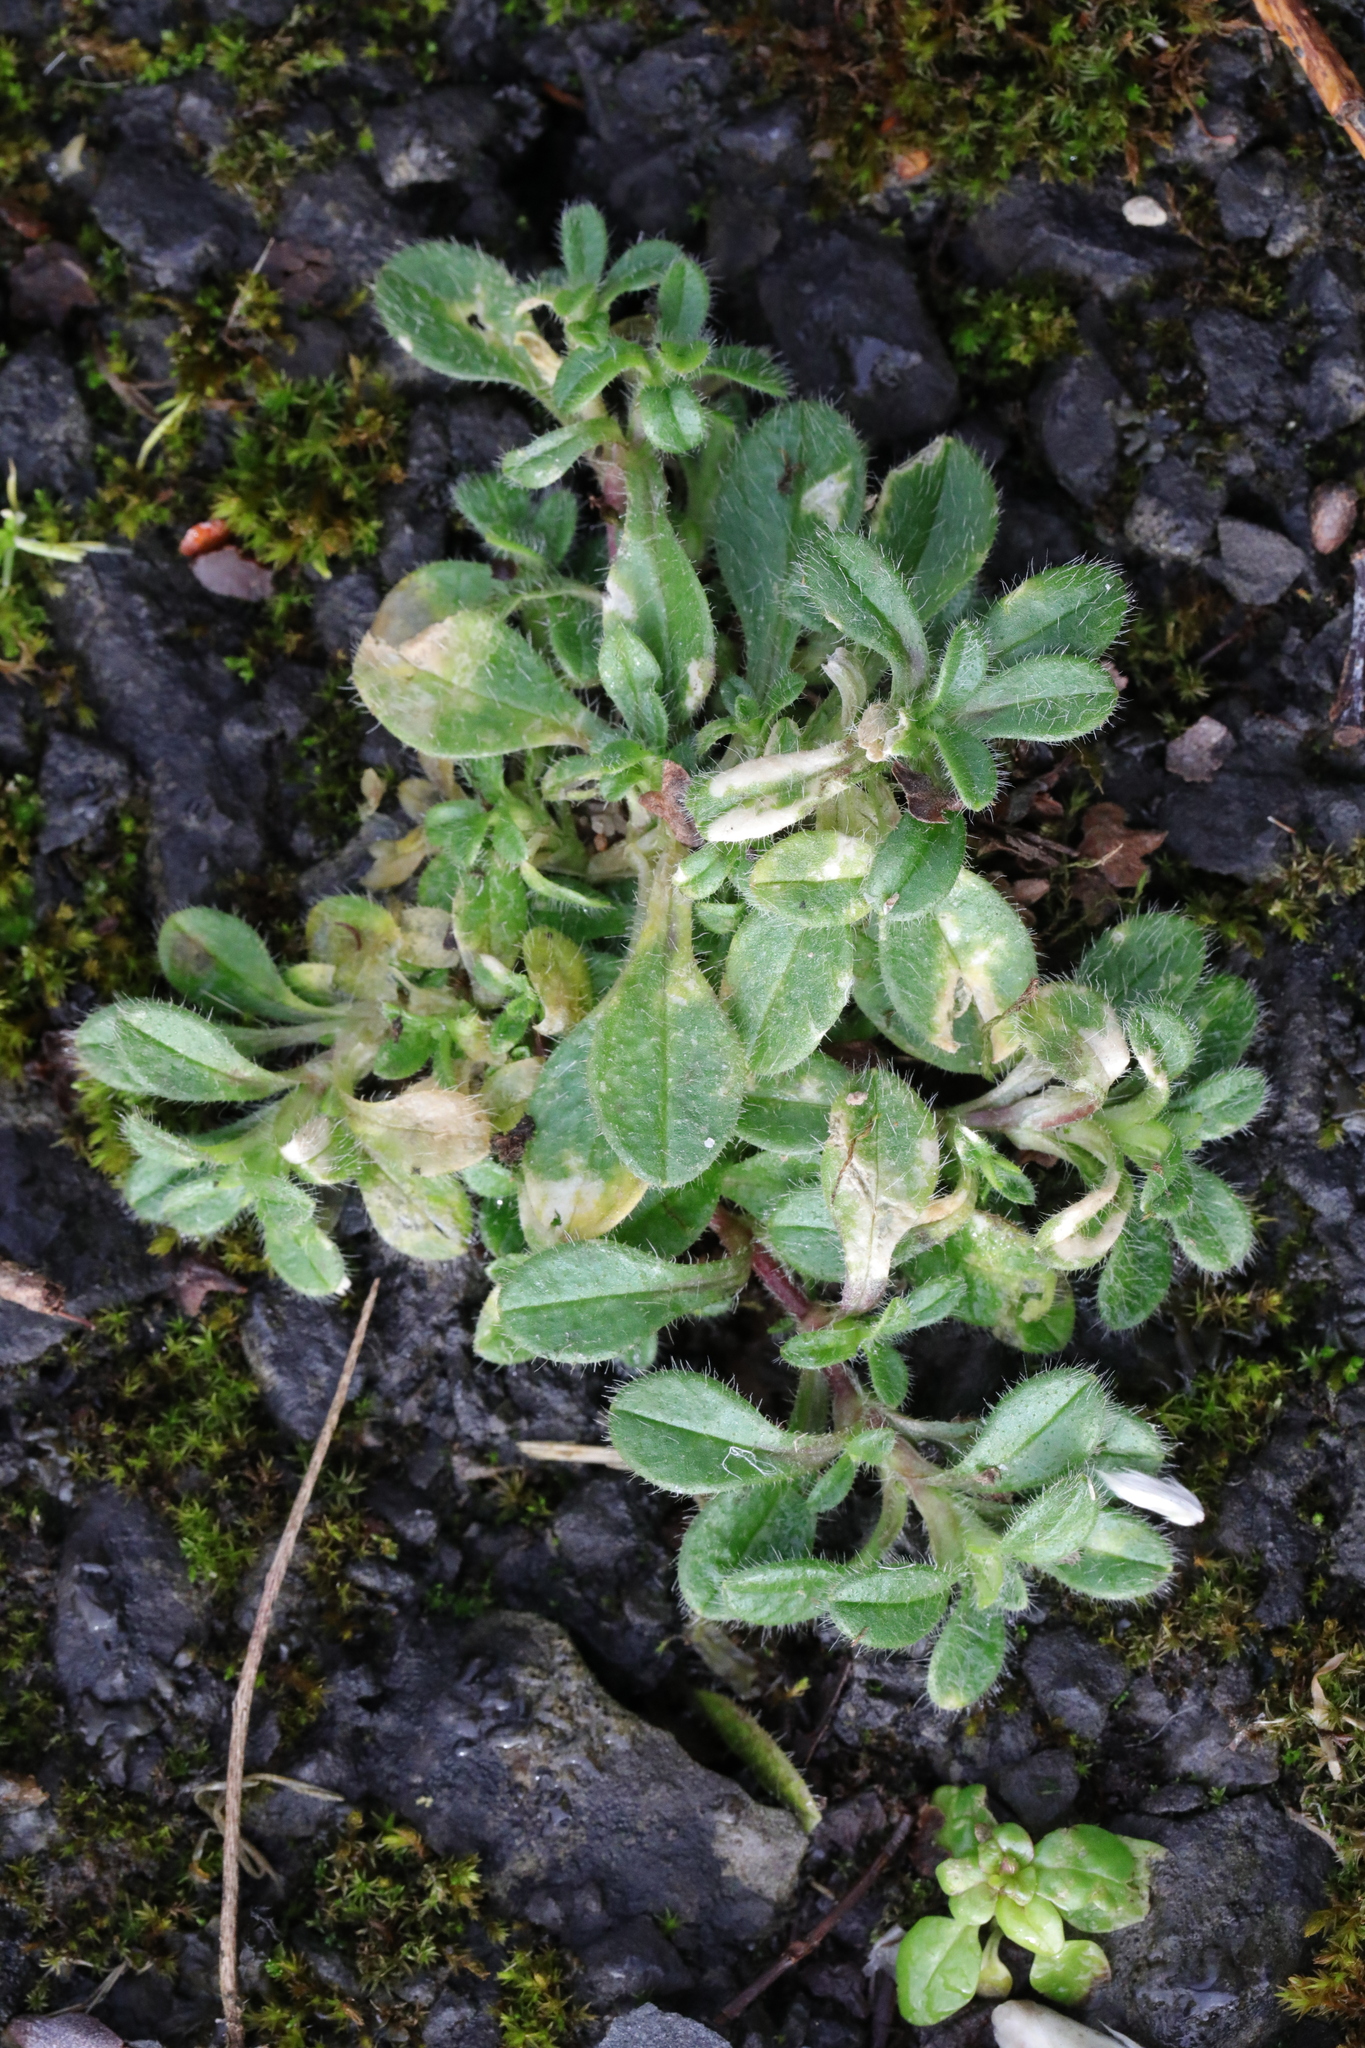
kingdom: Plantae
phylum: Tracheophyta
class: Magnoliopsida
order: Caryophyllales
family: Caryophyllaceae
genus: Cerastium
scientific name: Cerastium fontanum
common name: Common mouse-ear
